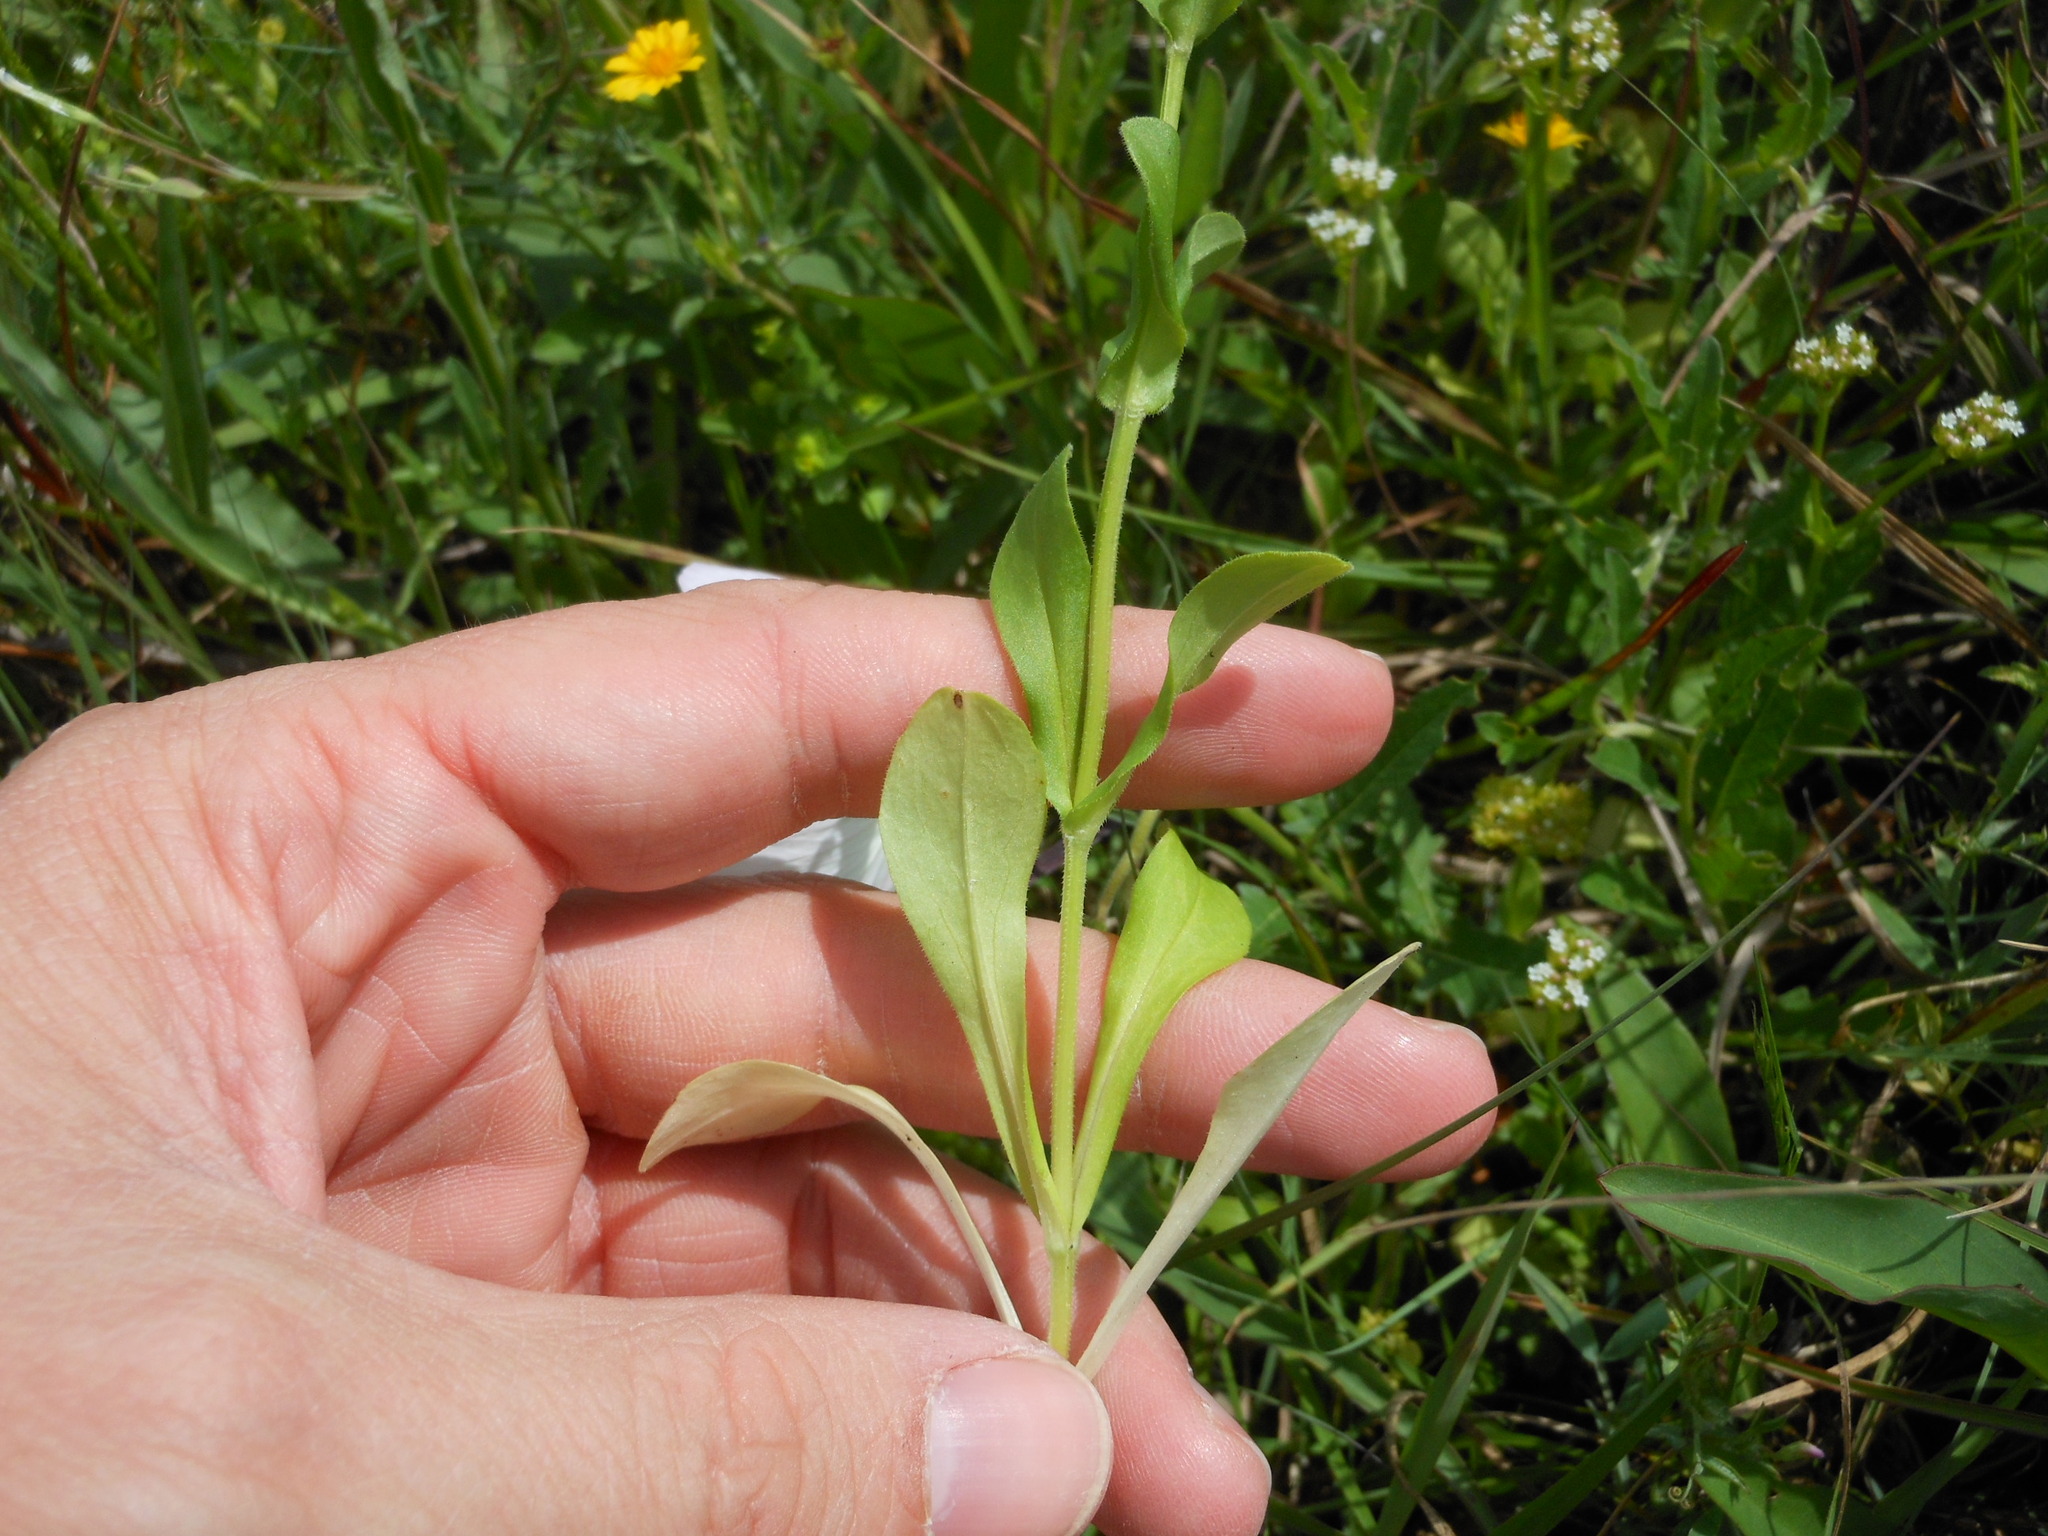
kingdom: Plantae
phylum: Tracheophyta
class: Magnoliopsida
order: Dipsacales
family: Caprifoliaceae
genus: Valerianella
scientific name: Valerianella radiata
